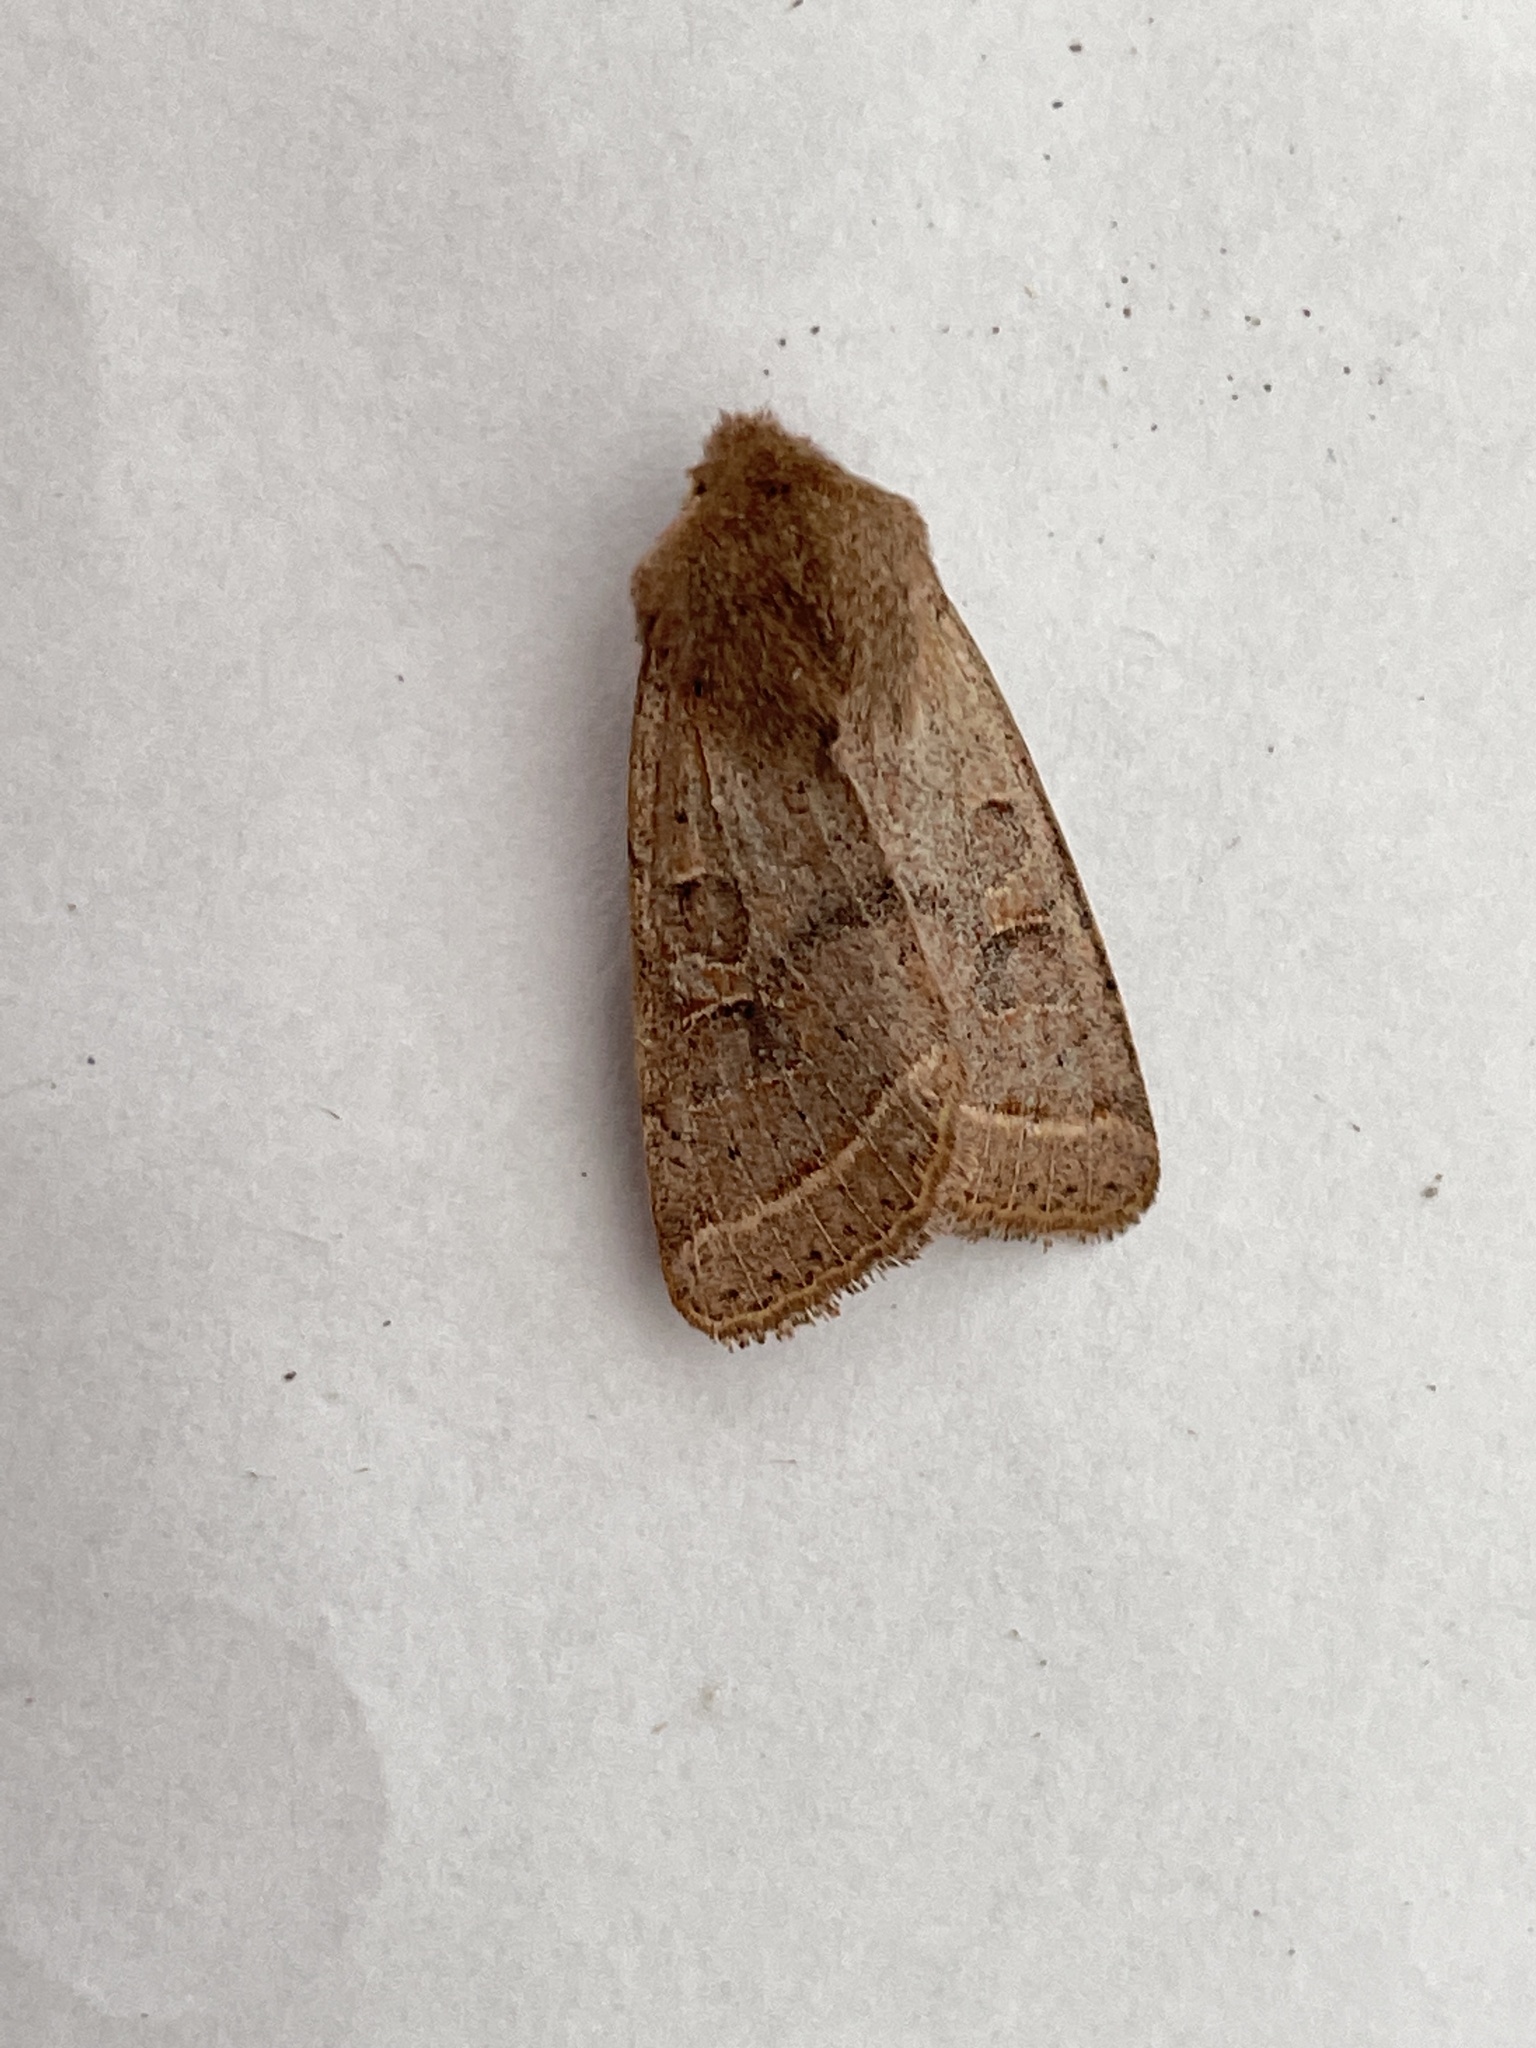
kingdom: Animalia
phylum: Arthropoda
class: Insecta
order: Lepidoptera
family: Noctuidae
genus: Orthosia
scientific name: Orthosia cerasi
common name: Common quaker
